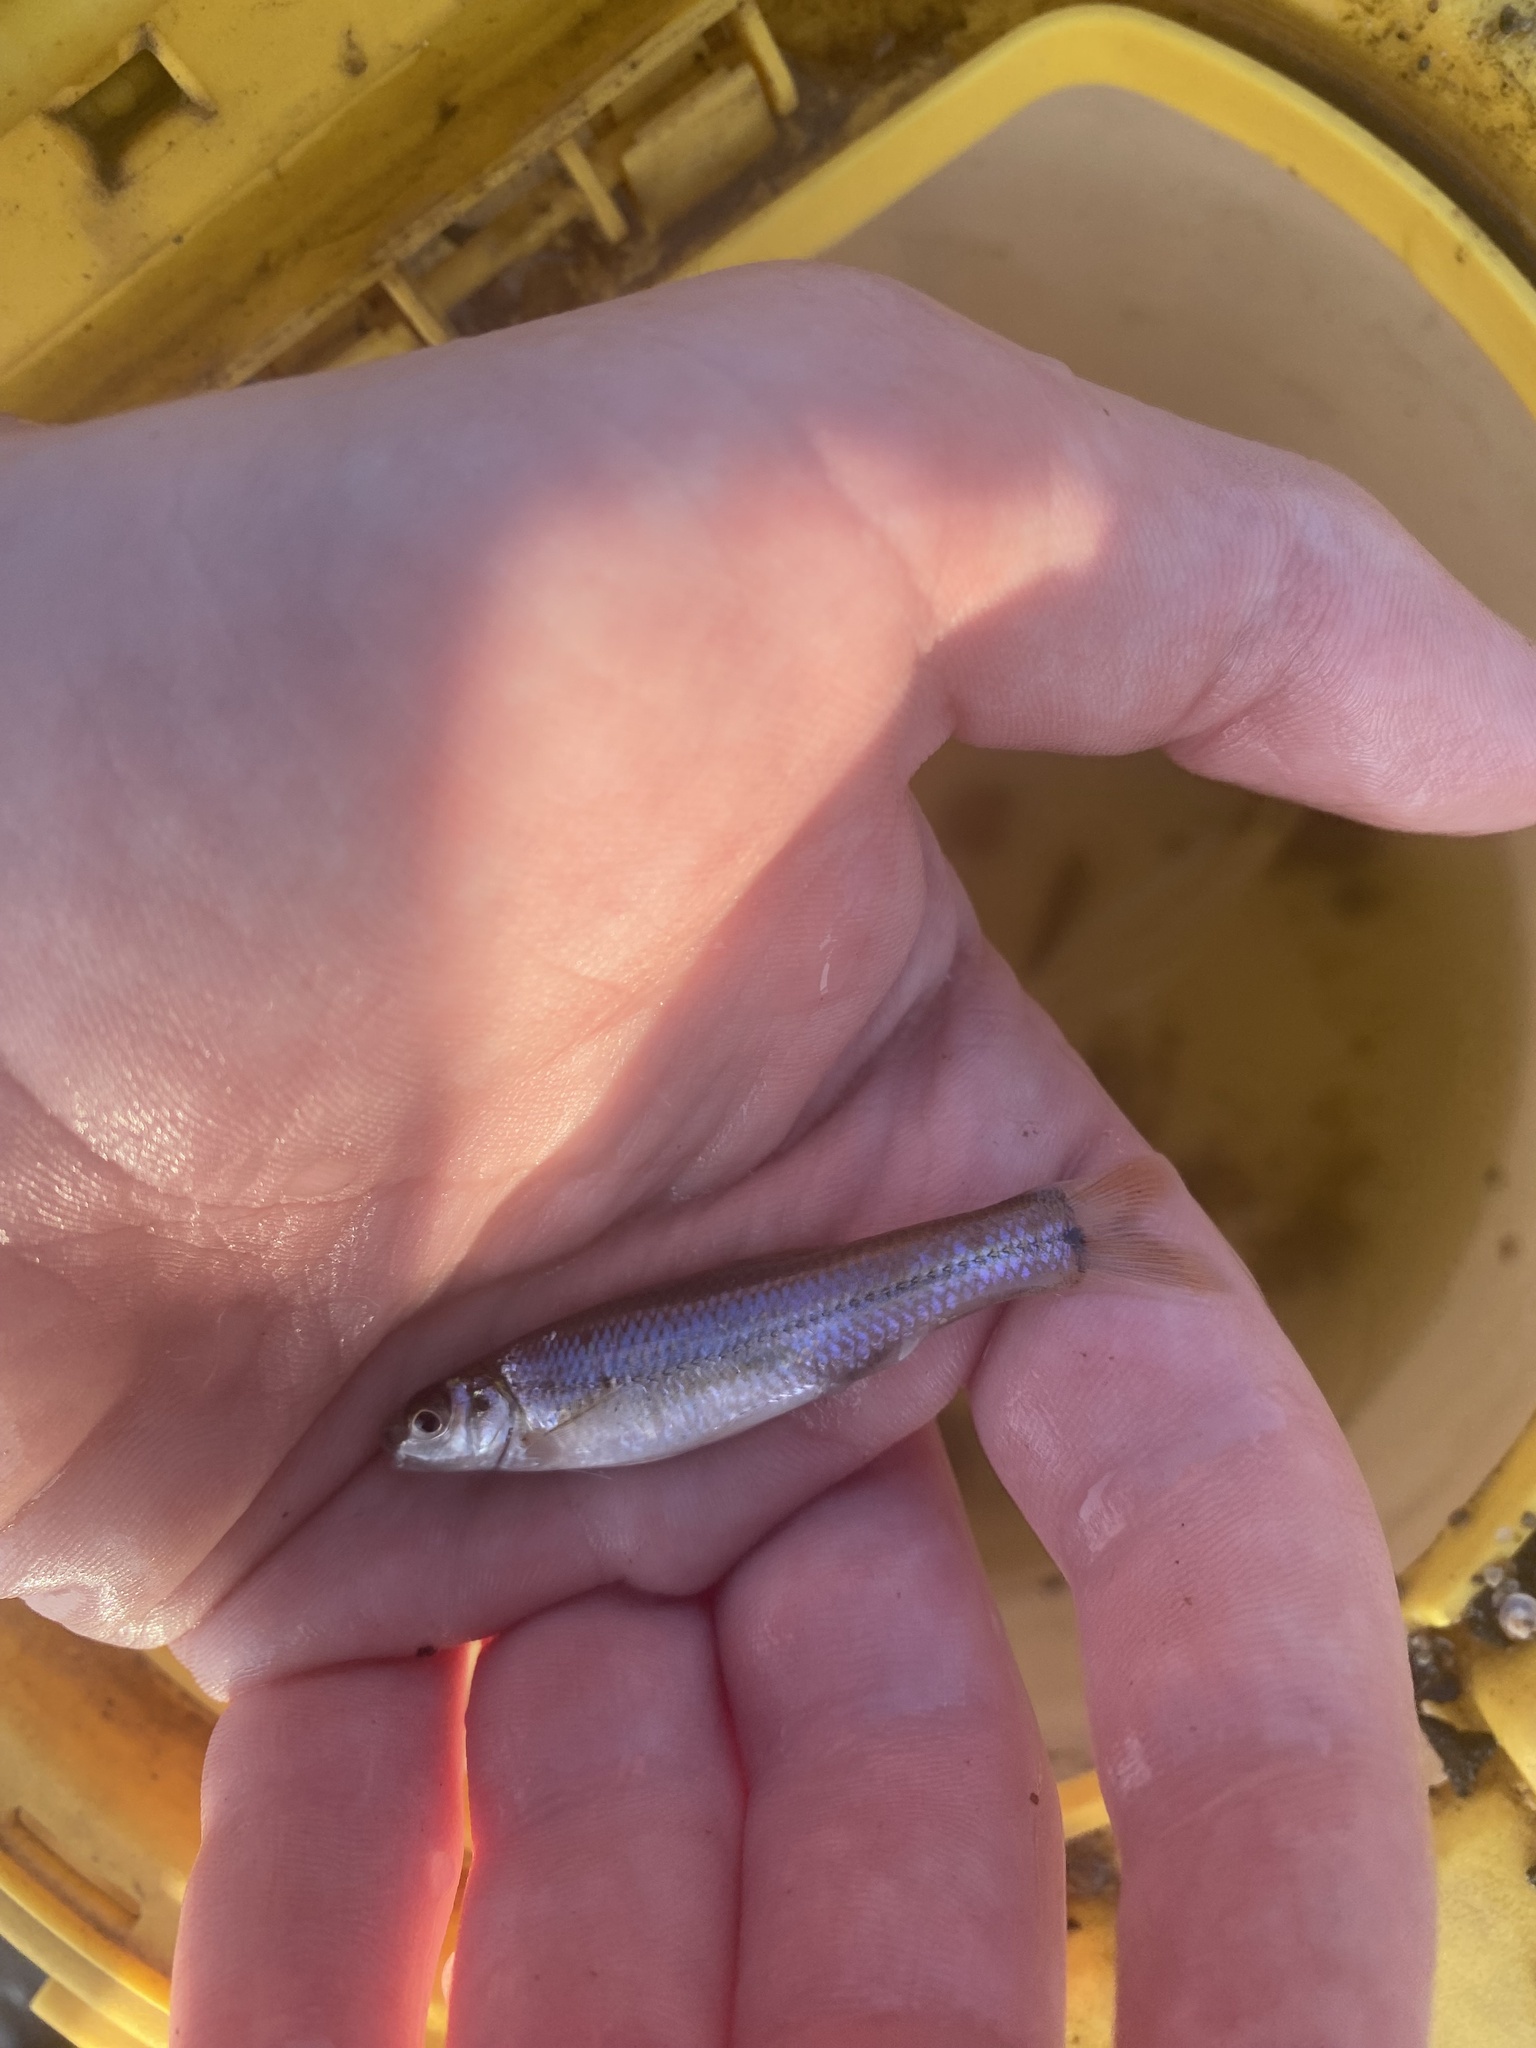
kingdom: Animalia
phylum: Chordata
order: Cypriniformes
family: Cyprinidae
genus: Pimephales
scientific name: Pimephales vigilax
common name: Bullhead minnow
